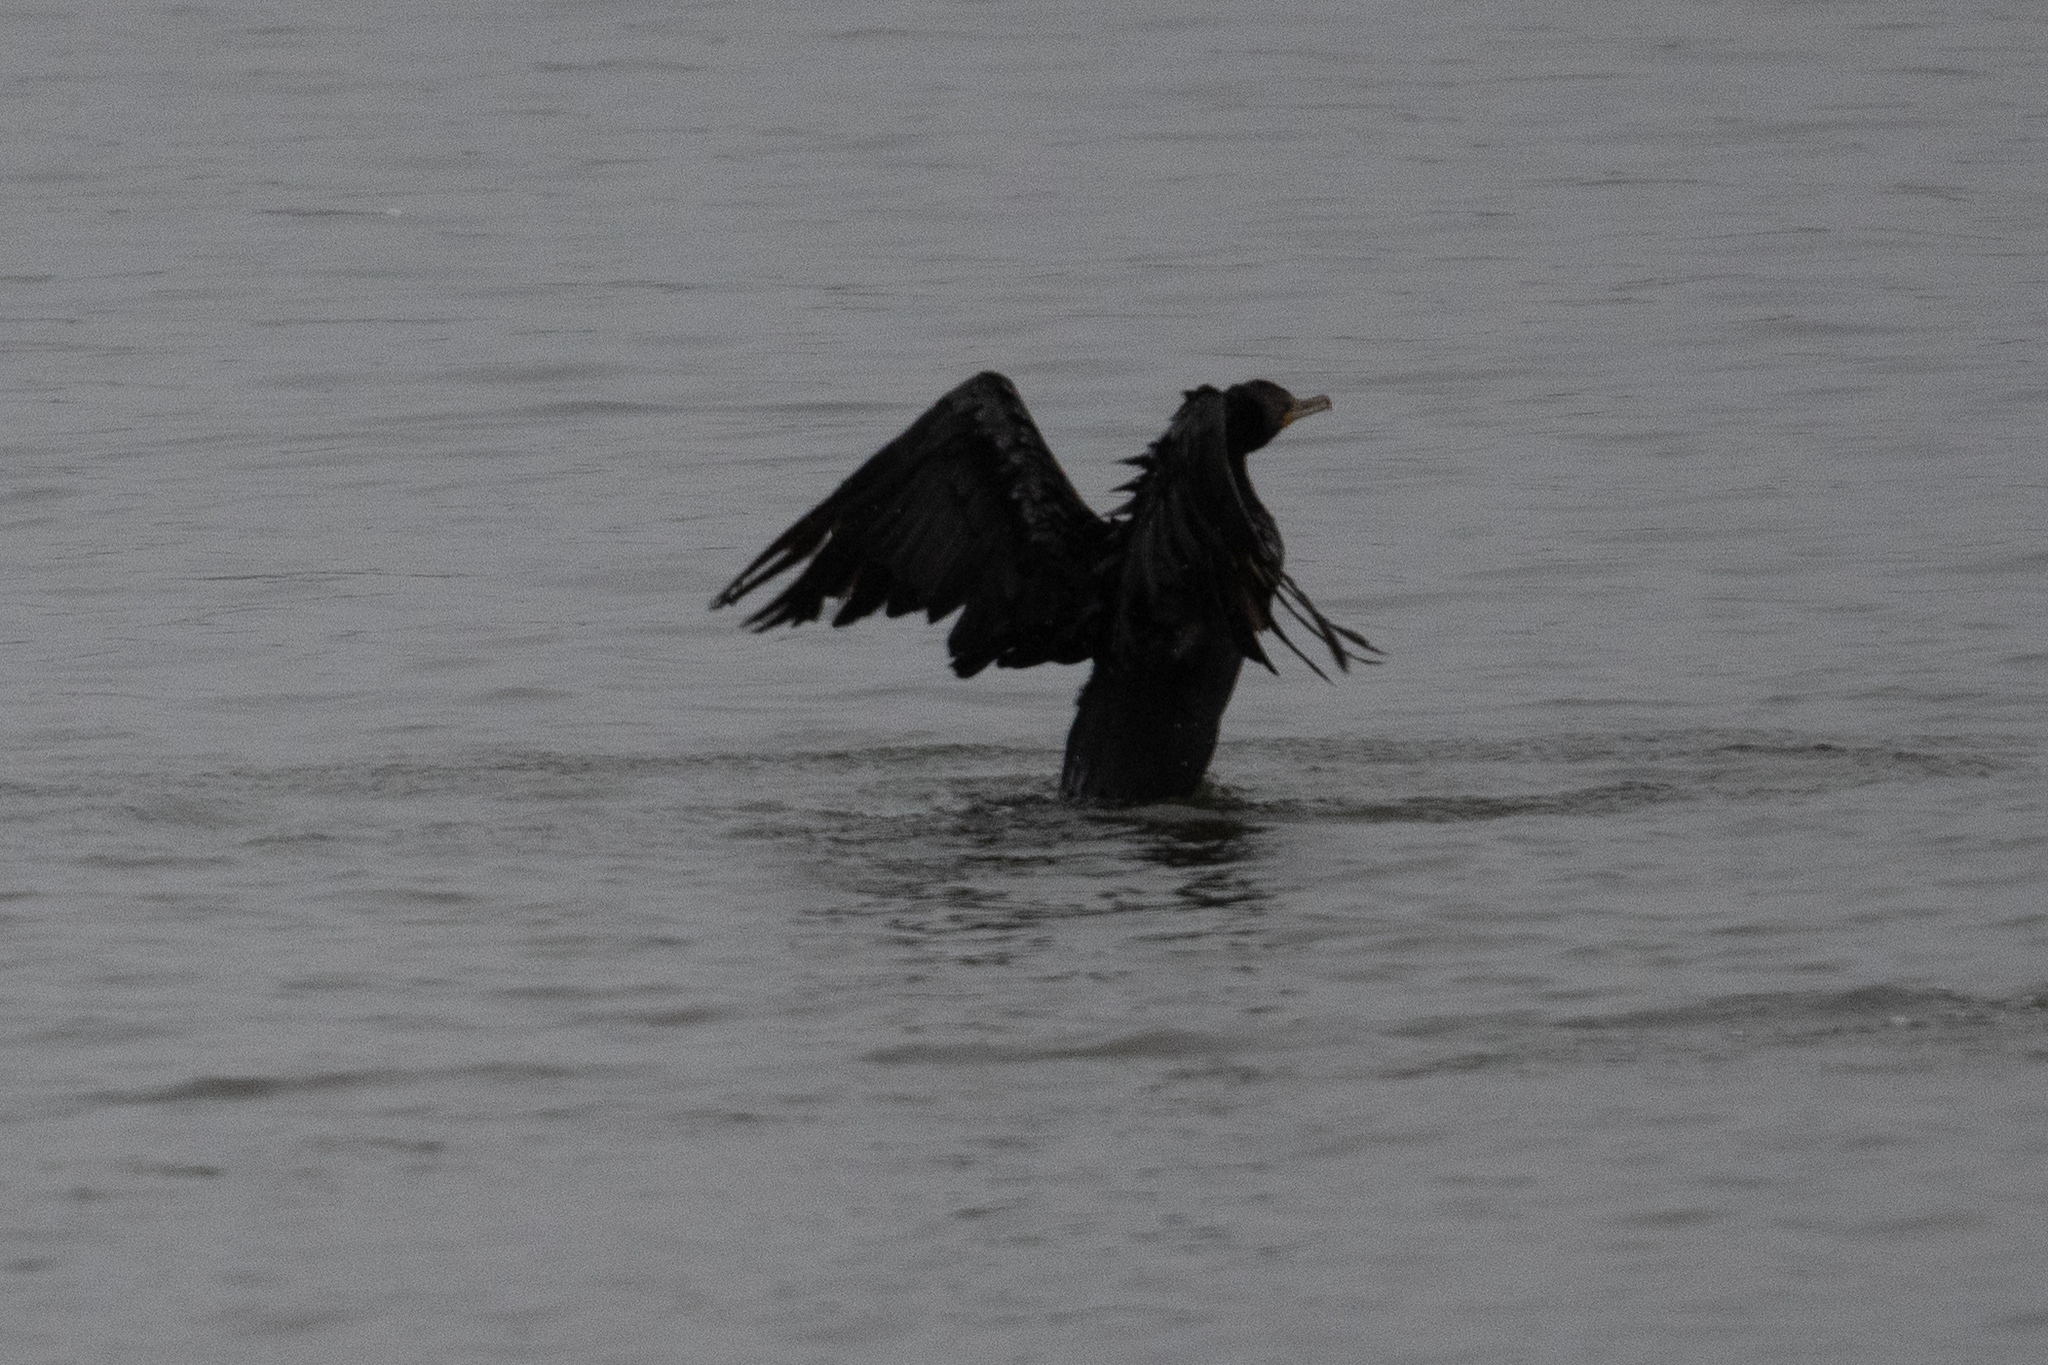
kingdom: Animalia
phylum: Chordata
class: Aves
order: Suliformes
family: Phalacrocoracidae
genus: Phalacrocorax
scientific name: Phalacrocorax auritus
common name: Double-crested cormorant
